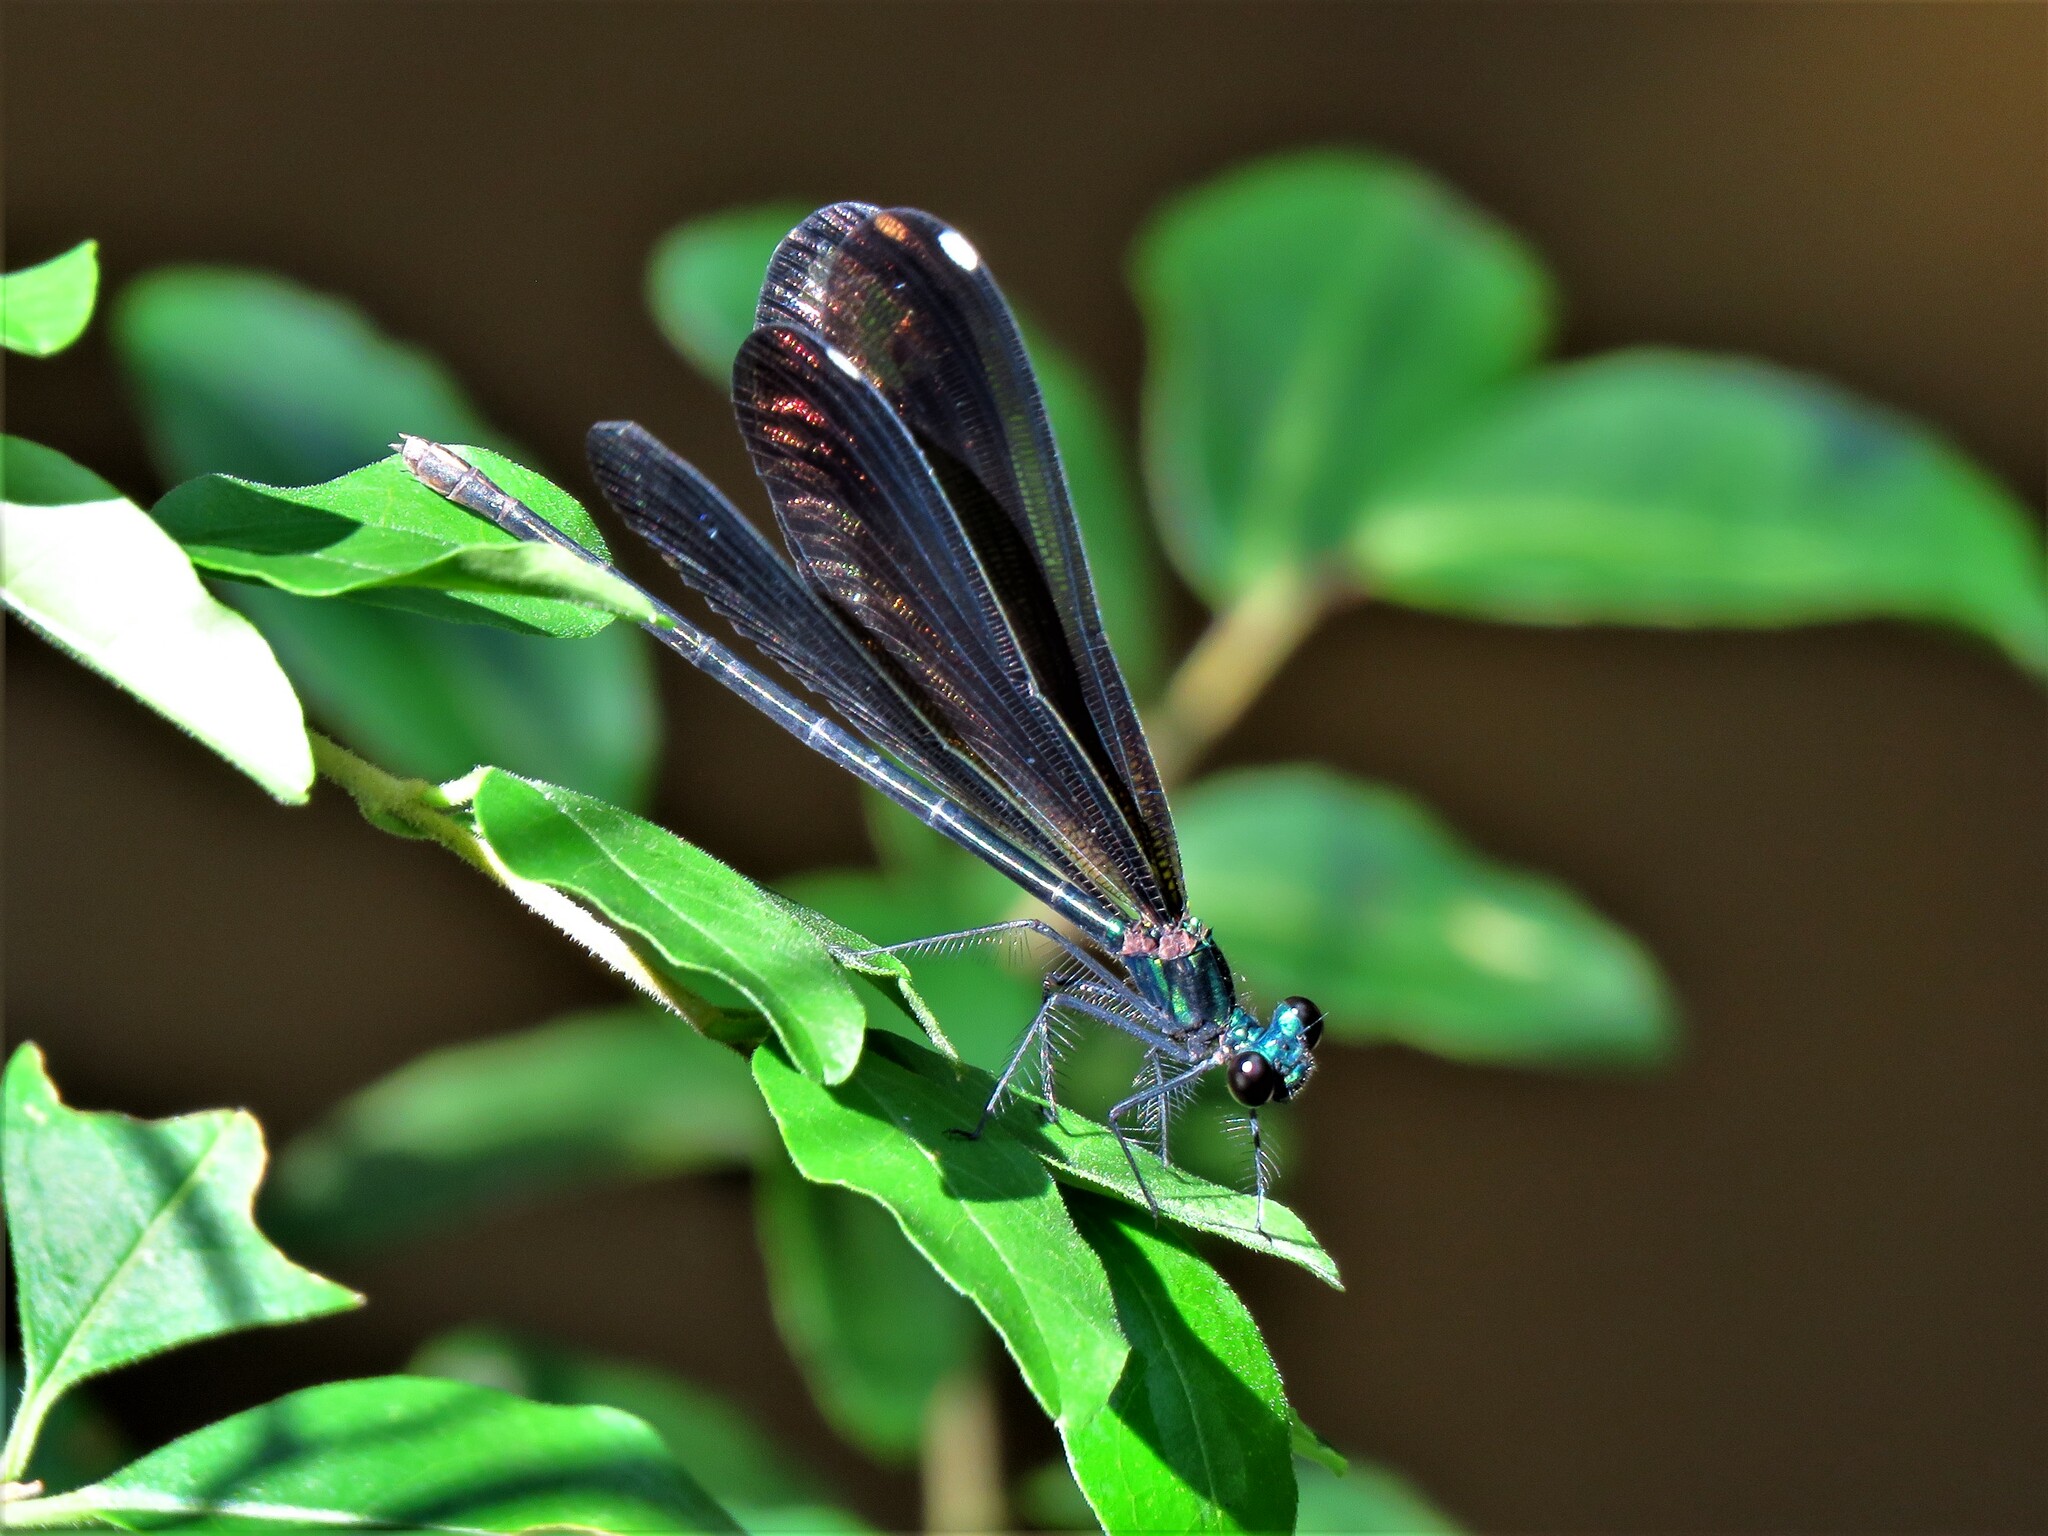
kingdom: Animalia
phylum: Arthropoda
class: Insecta
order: Odonata
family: Calopterygidae
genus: Calopteryx
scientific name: Calopteryx maculata
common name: Ebony jewelwing
